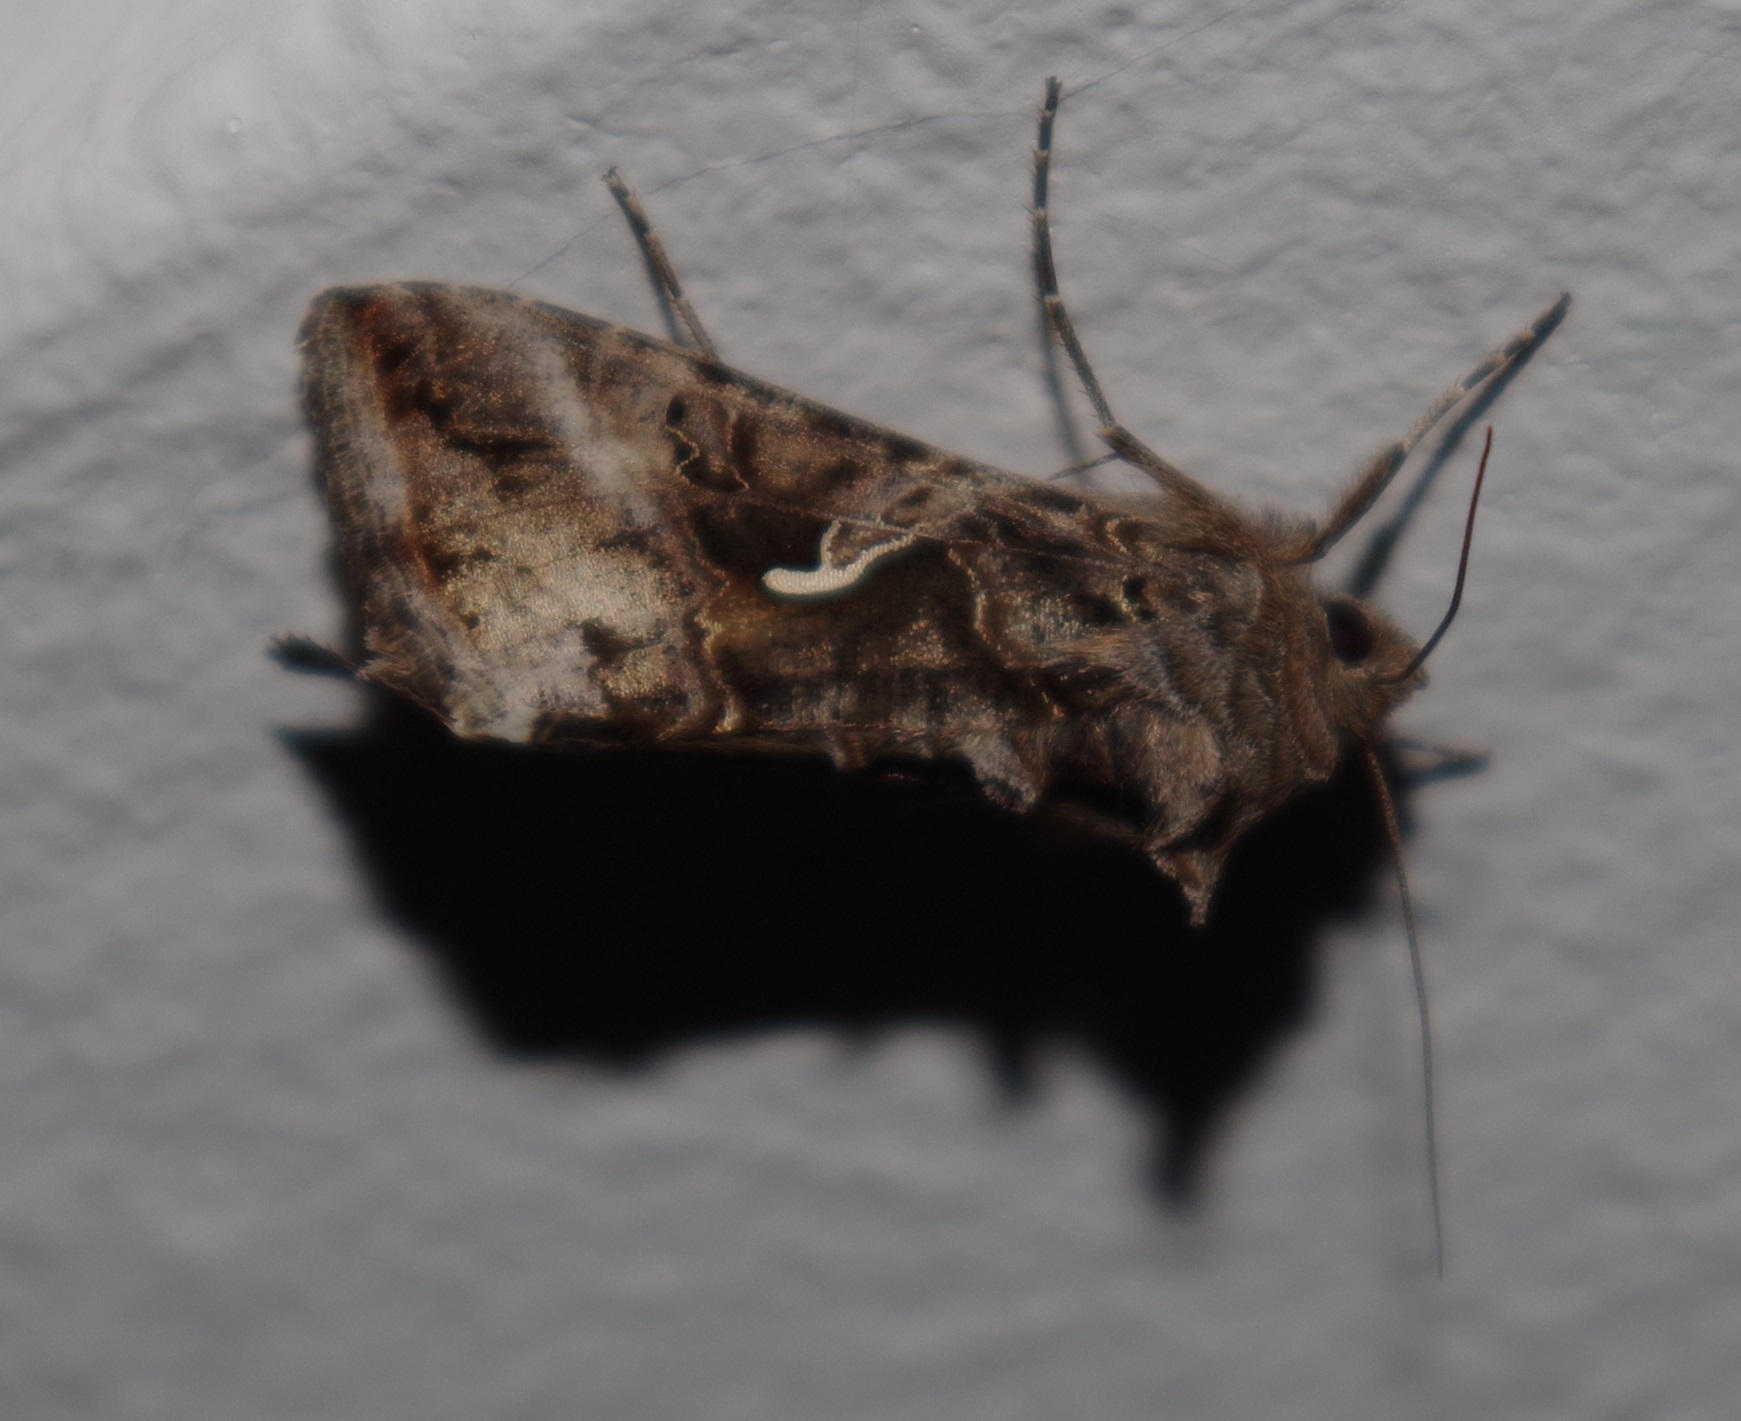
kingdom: Animalia
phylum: Arthropoda
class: Insecta
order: Lepidoptera
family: Noctuidae
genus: Autographa
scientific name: Autographa gamma
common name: Silver y
